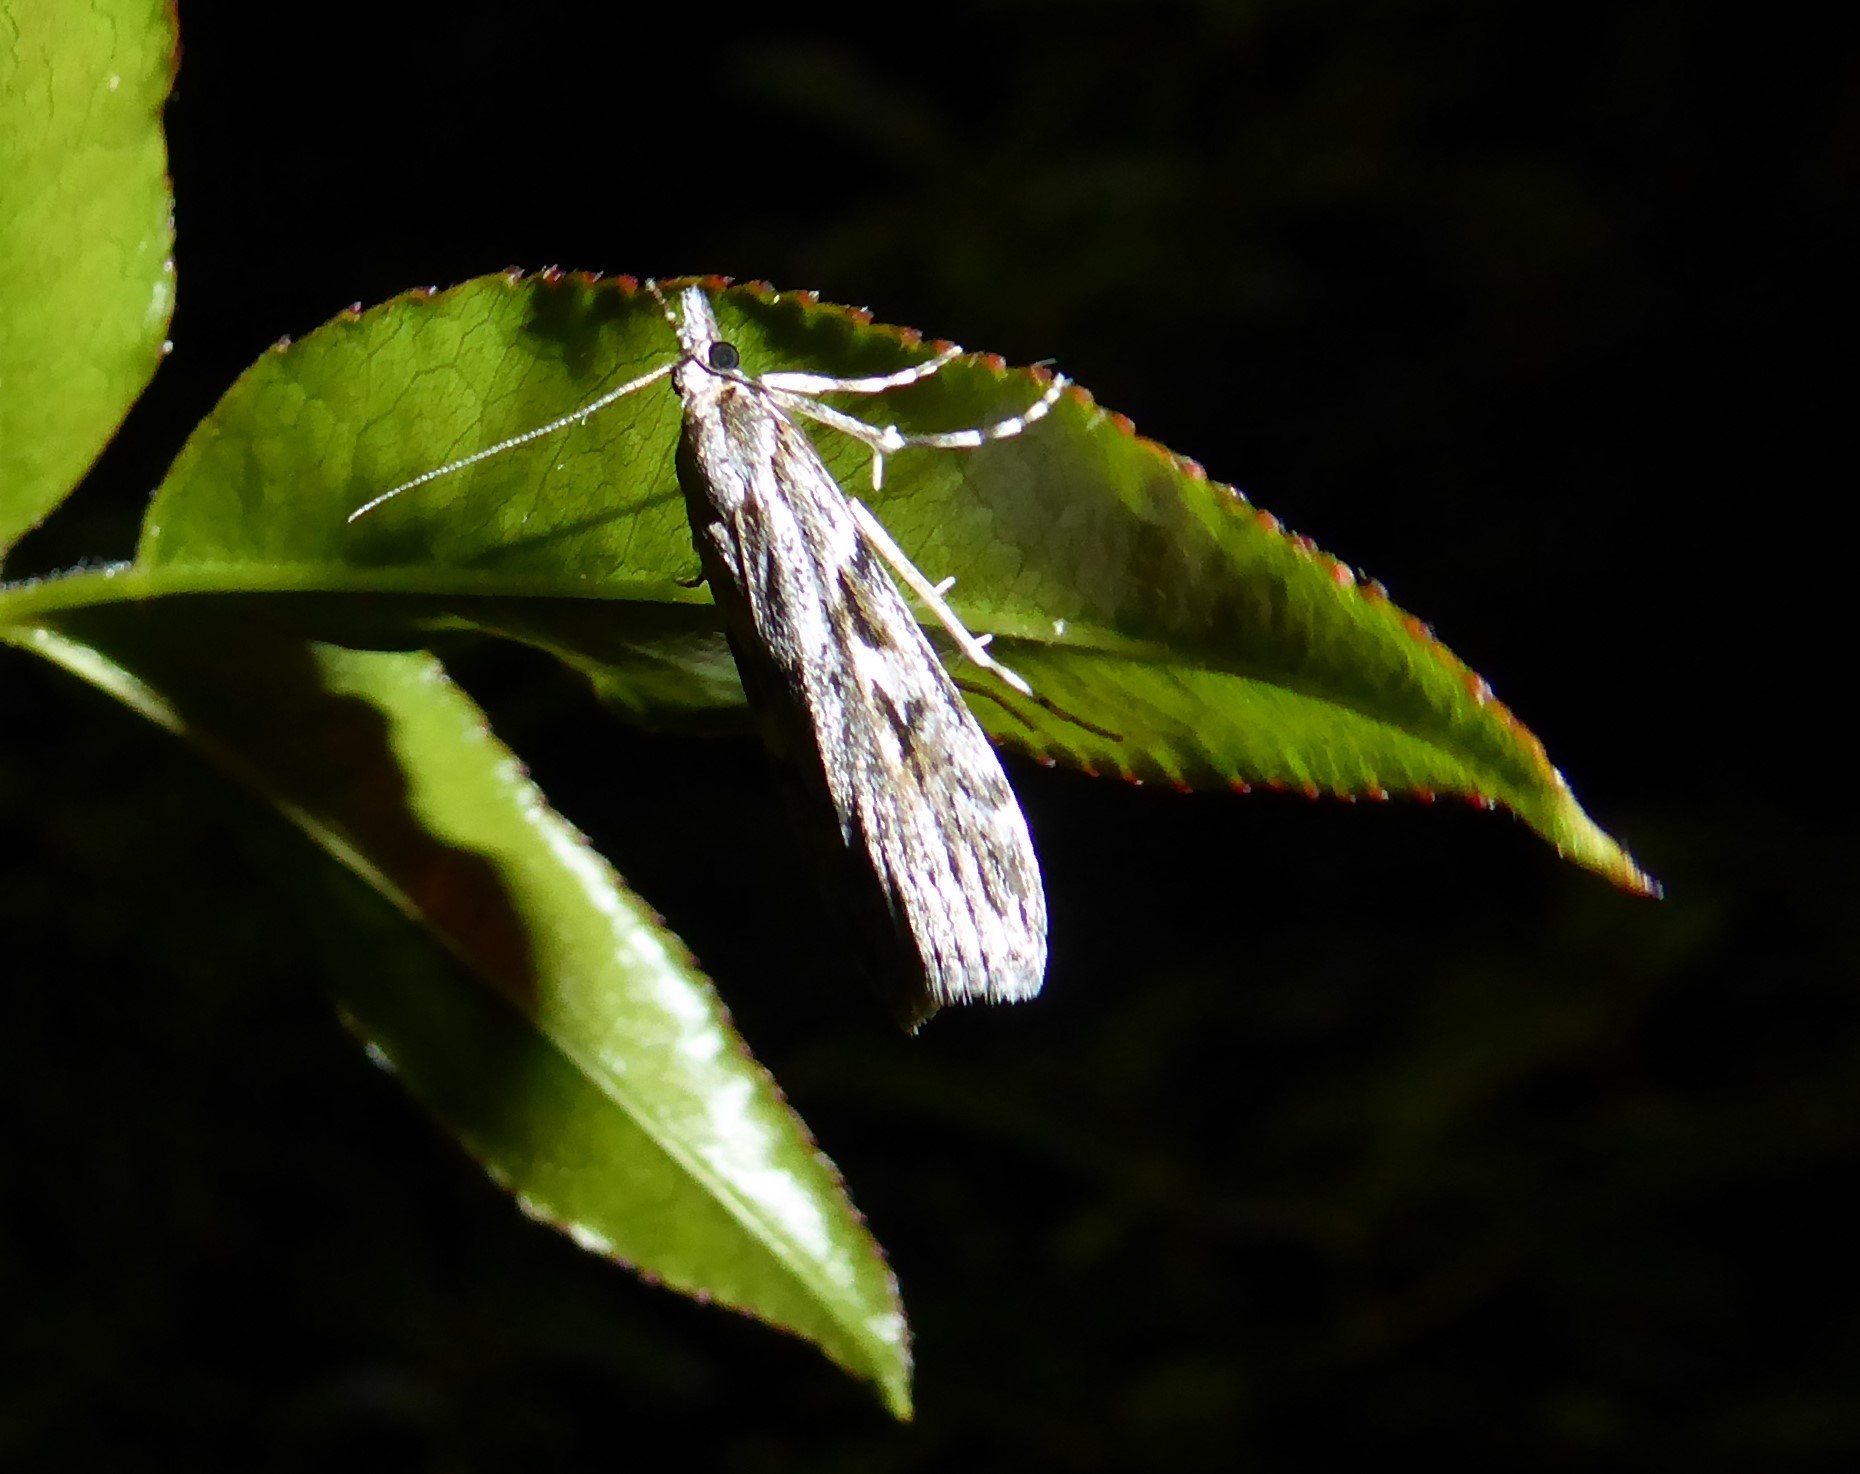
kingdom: Animalia
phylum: Arthropoda
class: Insecta
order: Lepidoptera
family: Crambidae
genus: Scoparia
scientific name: Scoparia halopis
